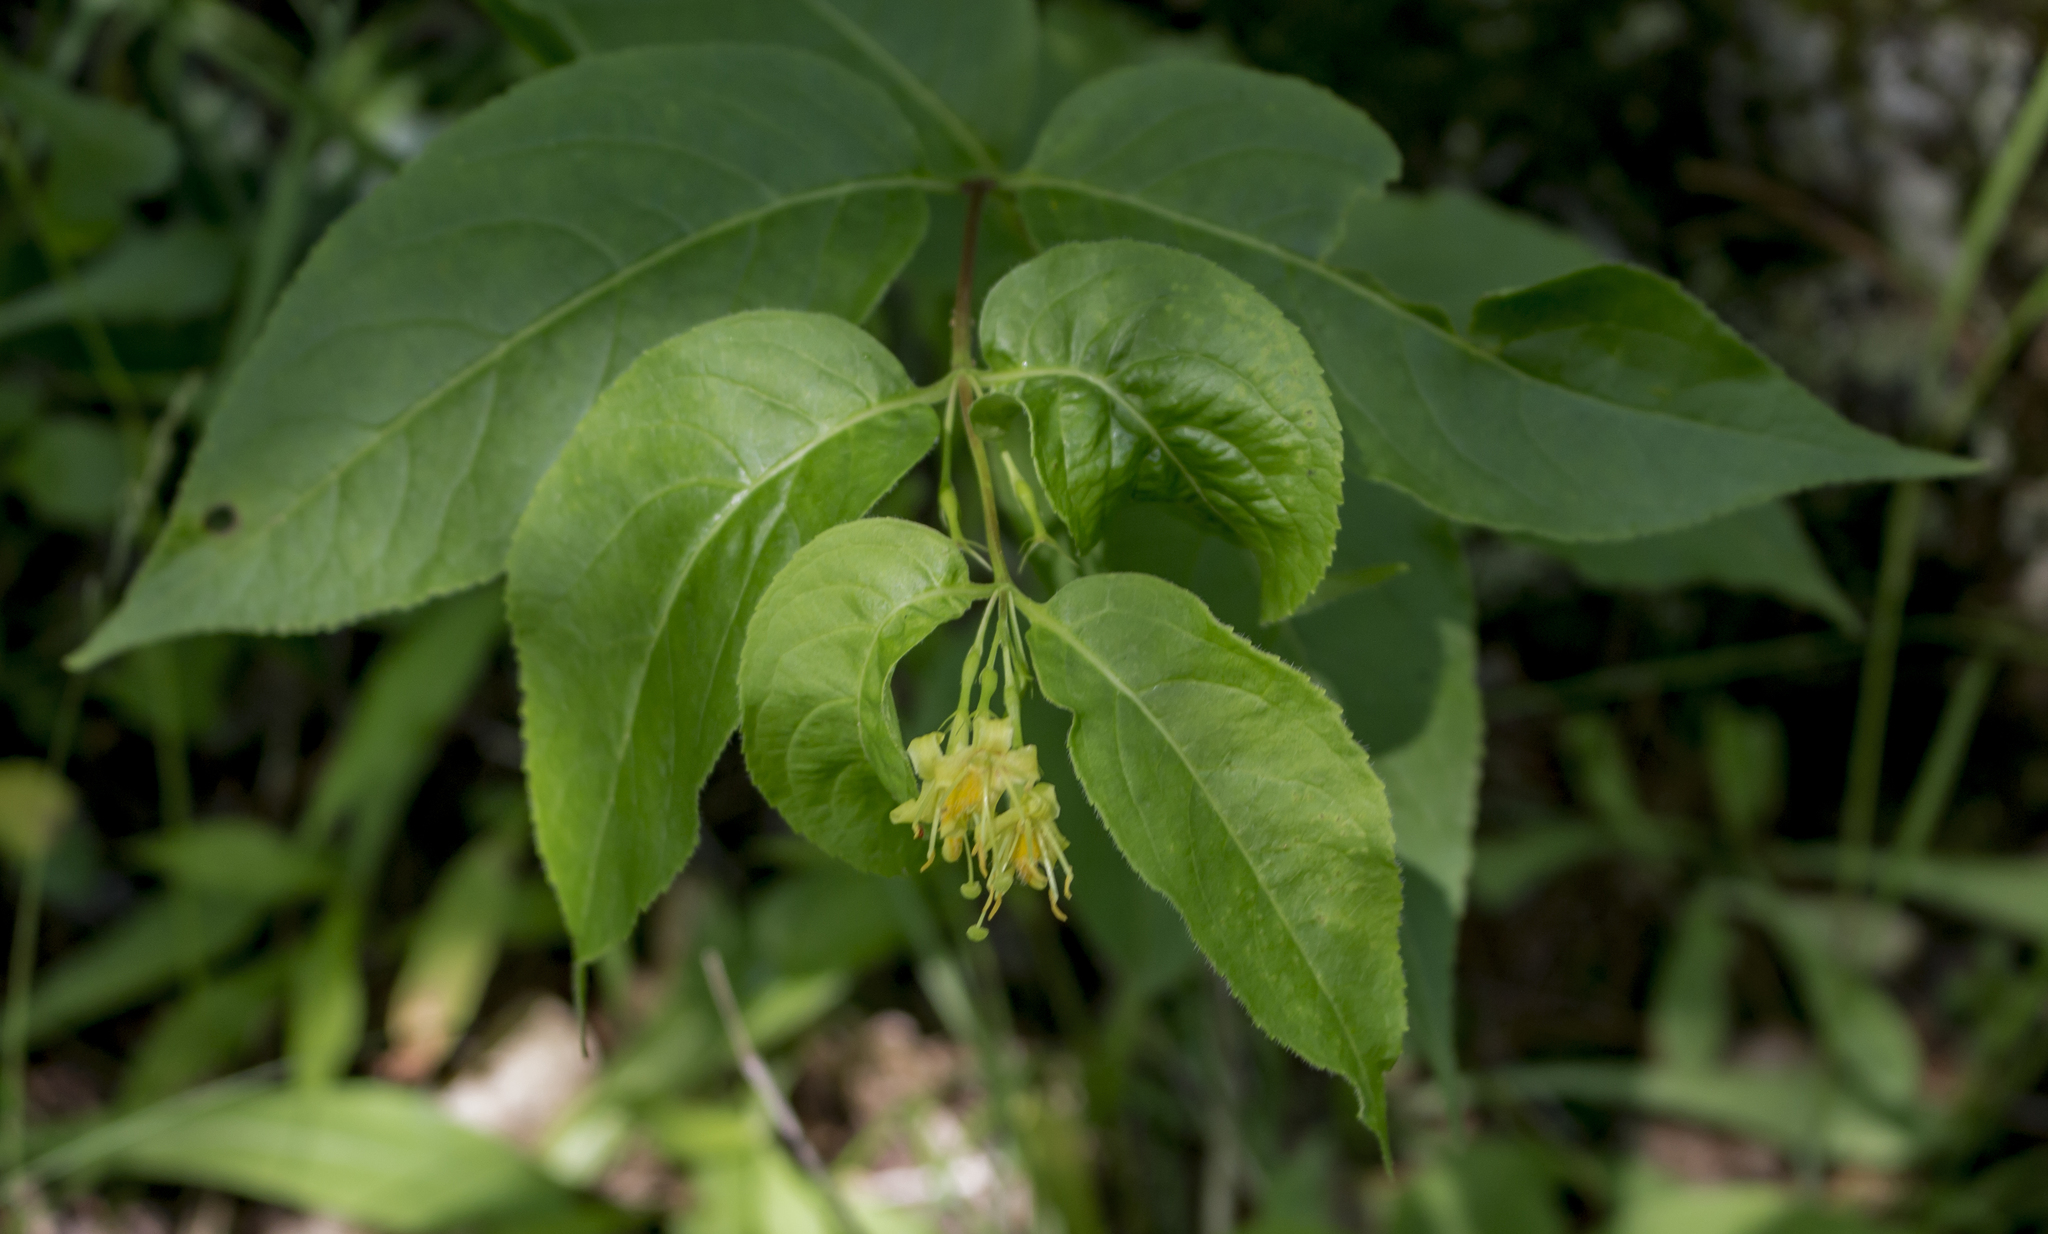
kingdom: Plantae
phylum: Tracheophyta
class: Magnoliopsida
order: Dipsacales
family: Caprifoliaceae
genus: Diervilla
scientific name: Diervilla lonicera
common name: Bush-honeysuckle
